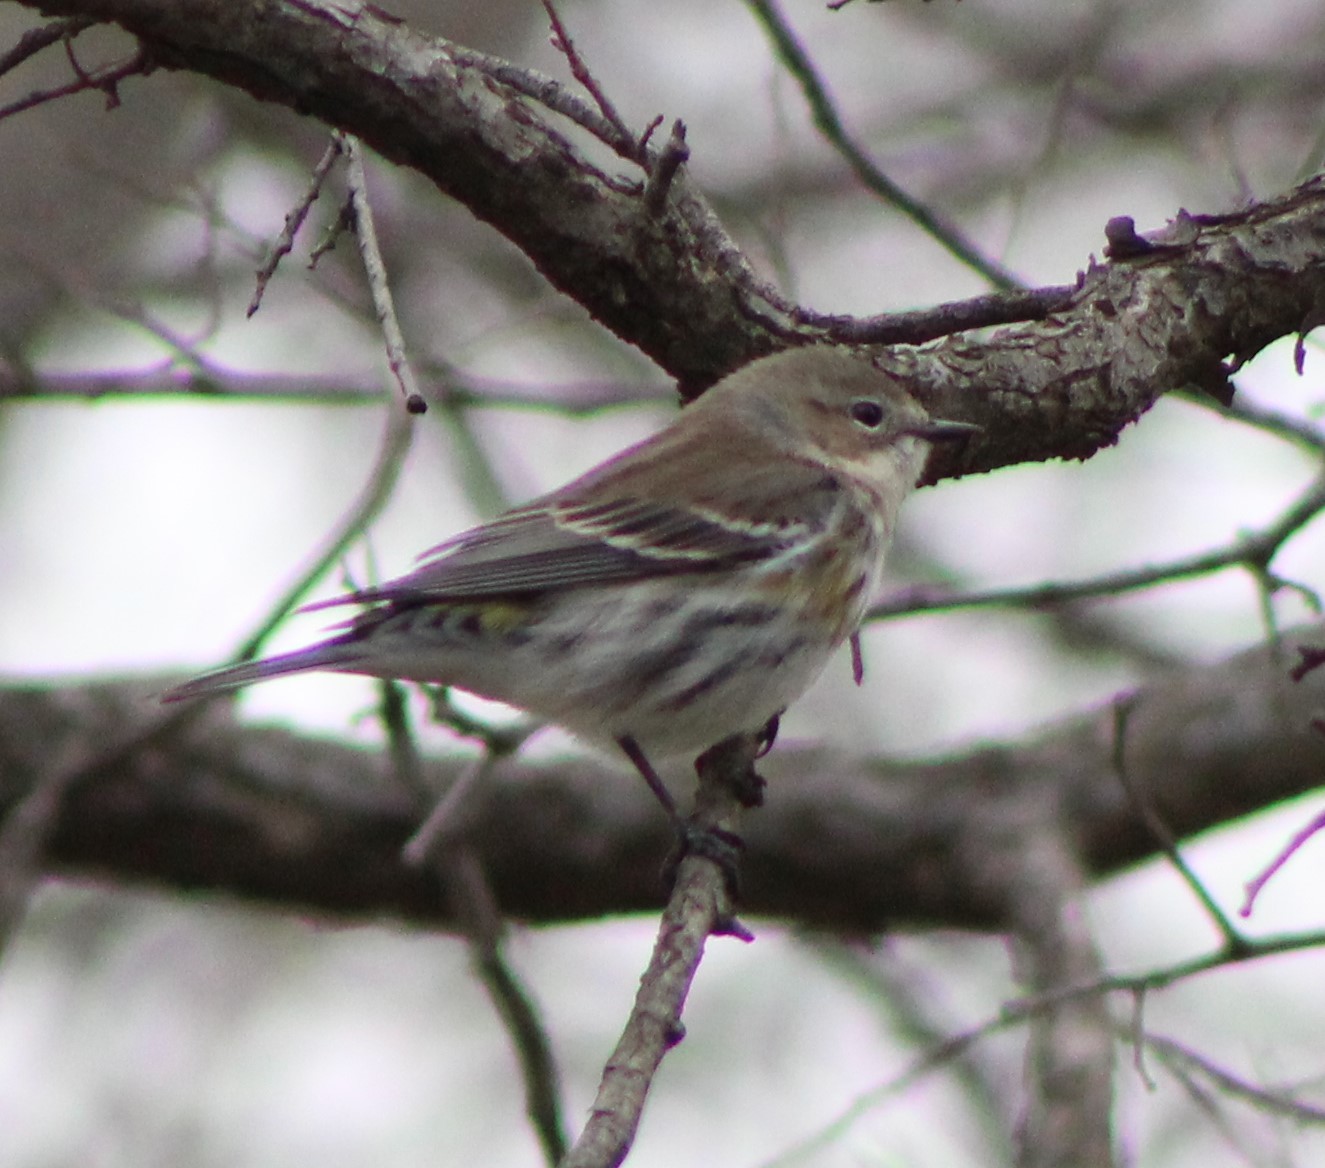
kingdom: Animalia
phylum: Chordata
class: Aves
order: Passeriformes
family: Parulidae
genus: Setophaga
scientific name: Setophaga coronata
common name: Myrtle warbler
